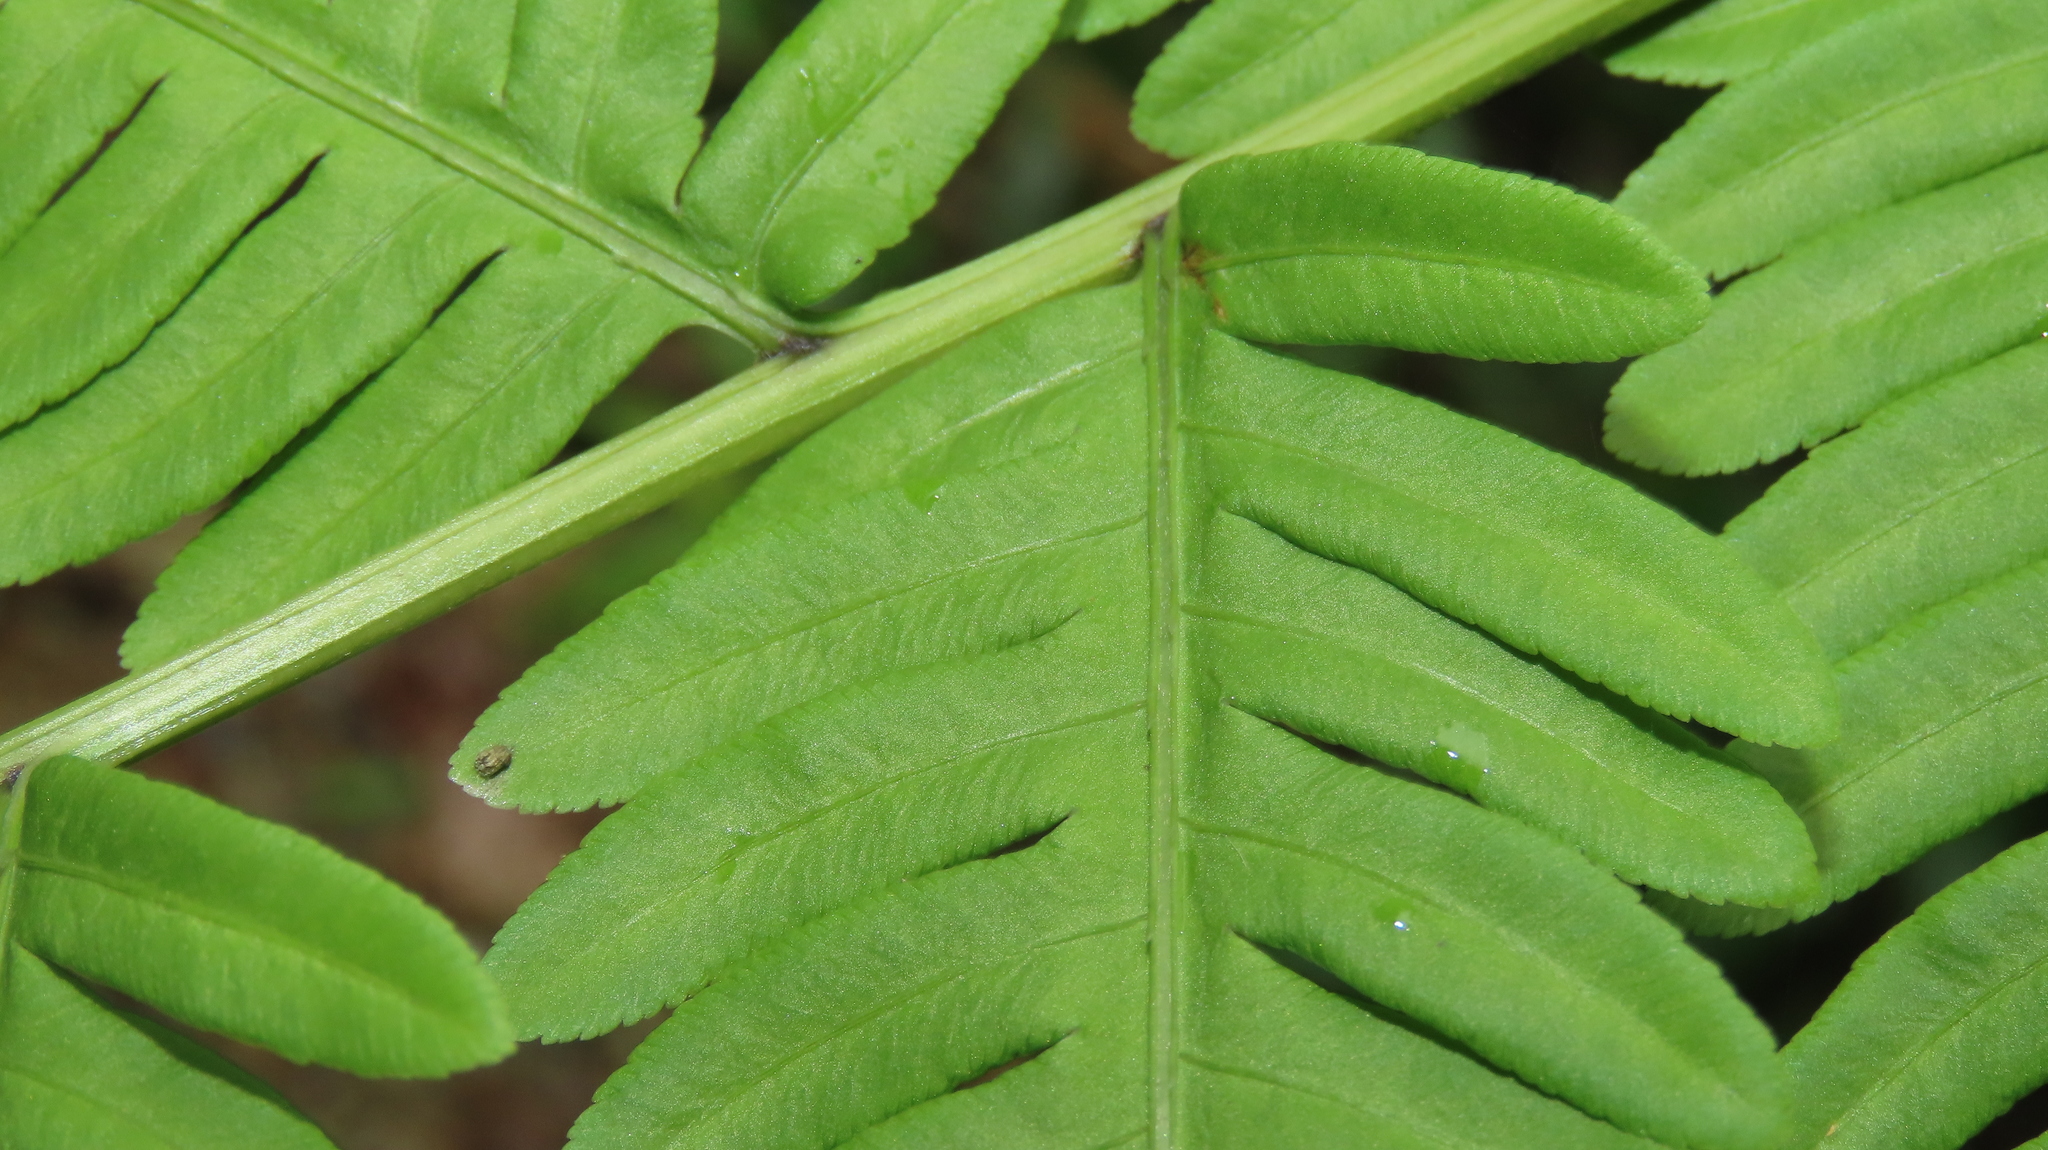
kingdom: Plantae
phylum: Tracheophyta
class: Polypodiopsida
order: Polypodiales
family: Pteridaceae
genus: Pteris
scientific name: Pteris wallichiana
